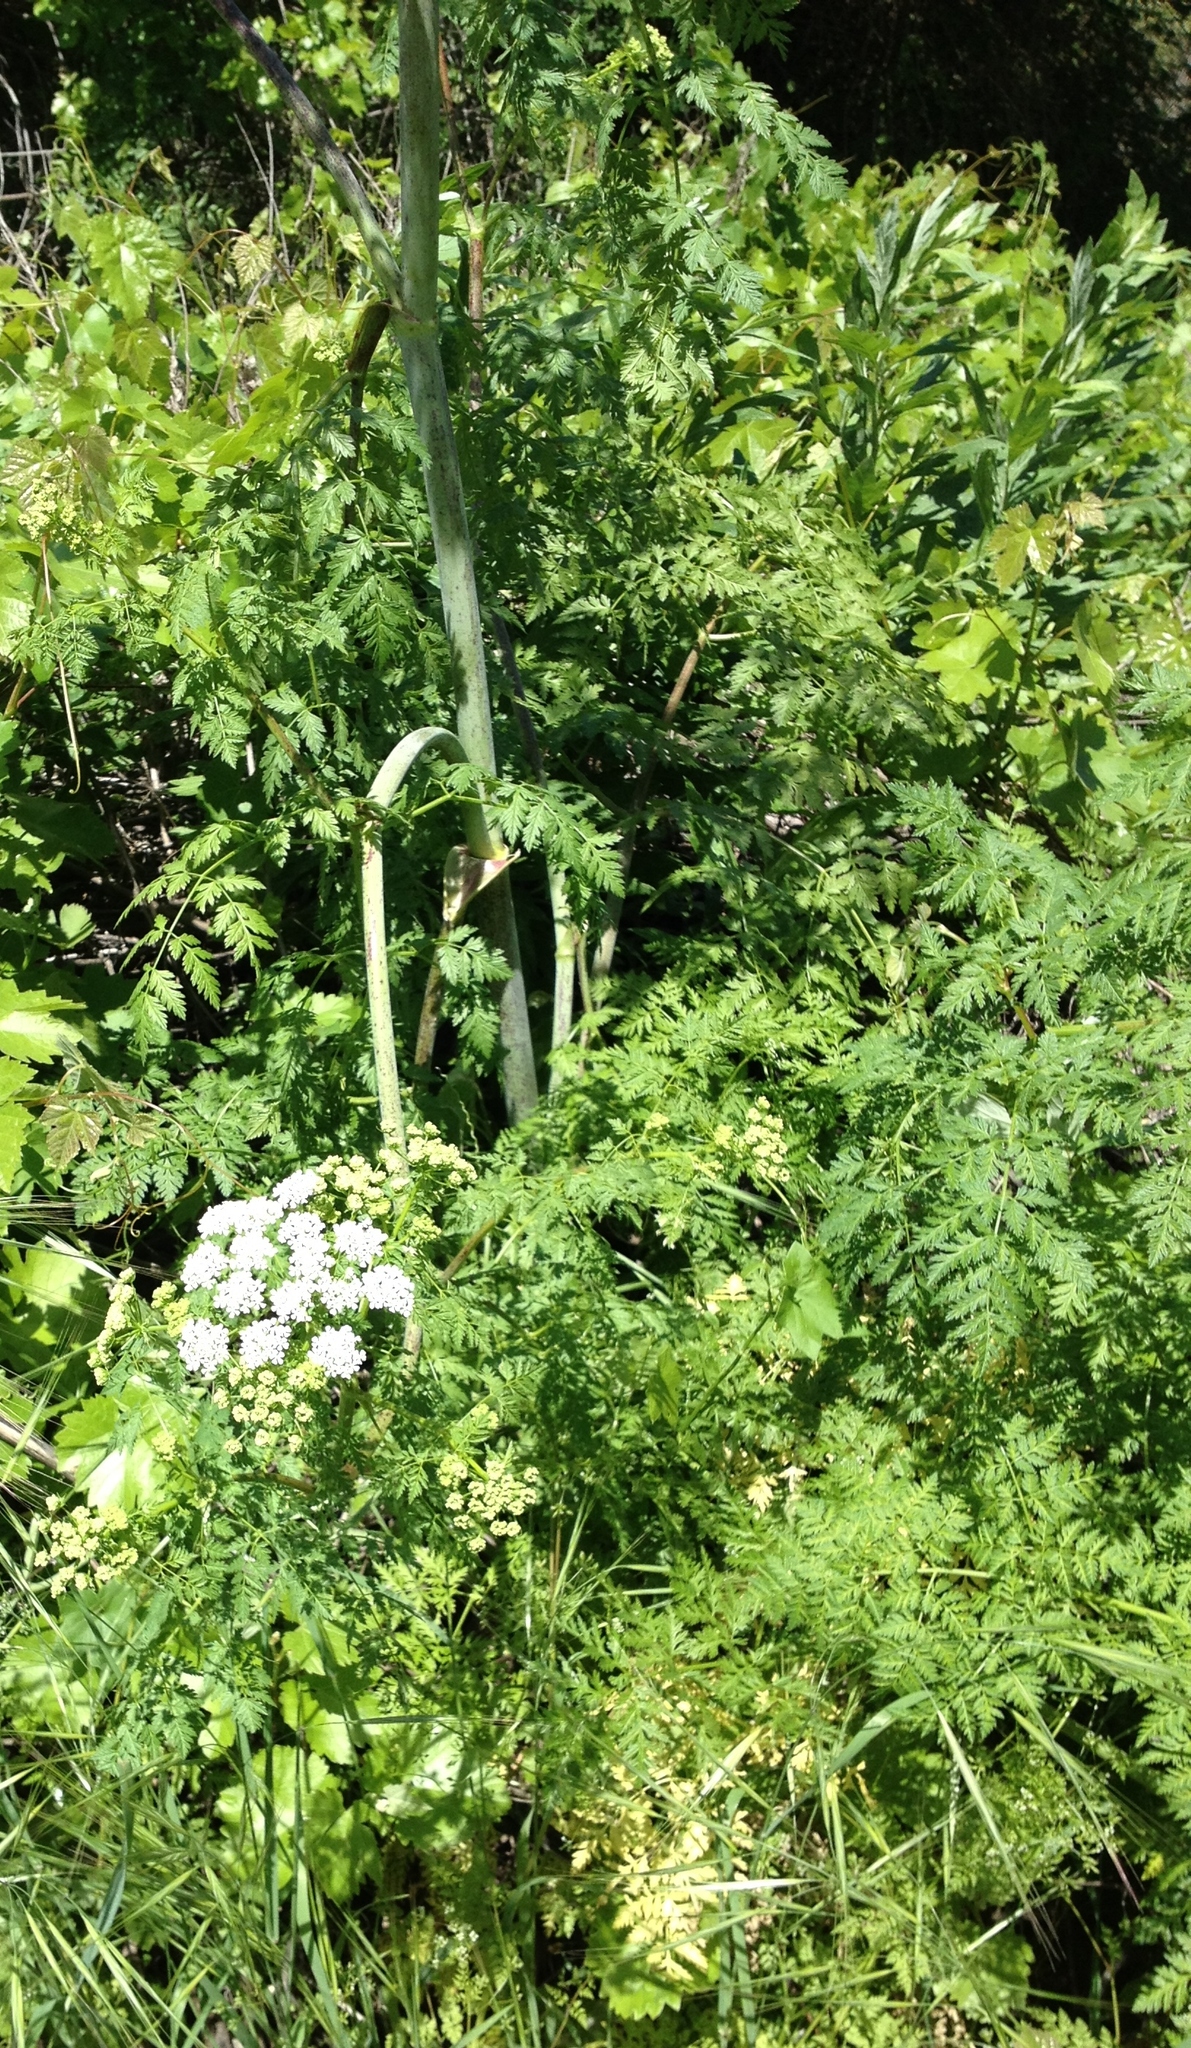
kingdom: Plantae
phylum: Tracheophyta
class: Magnoliopsida
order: Apiales
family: Apiaceae
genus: Conium
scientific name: Conium maculatum
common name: Hemlock
